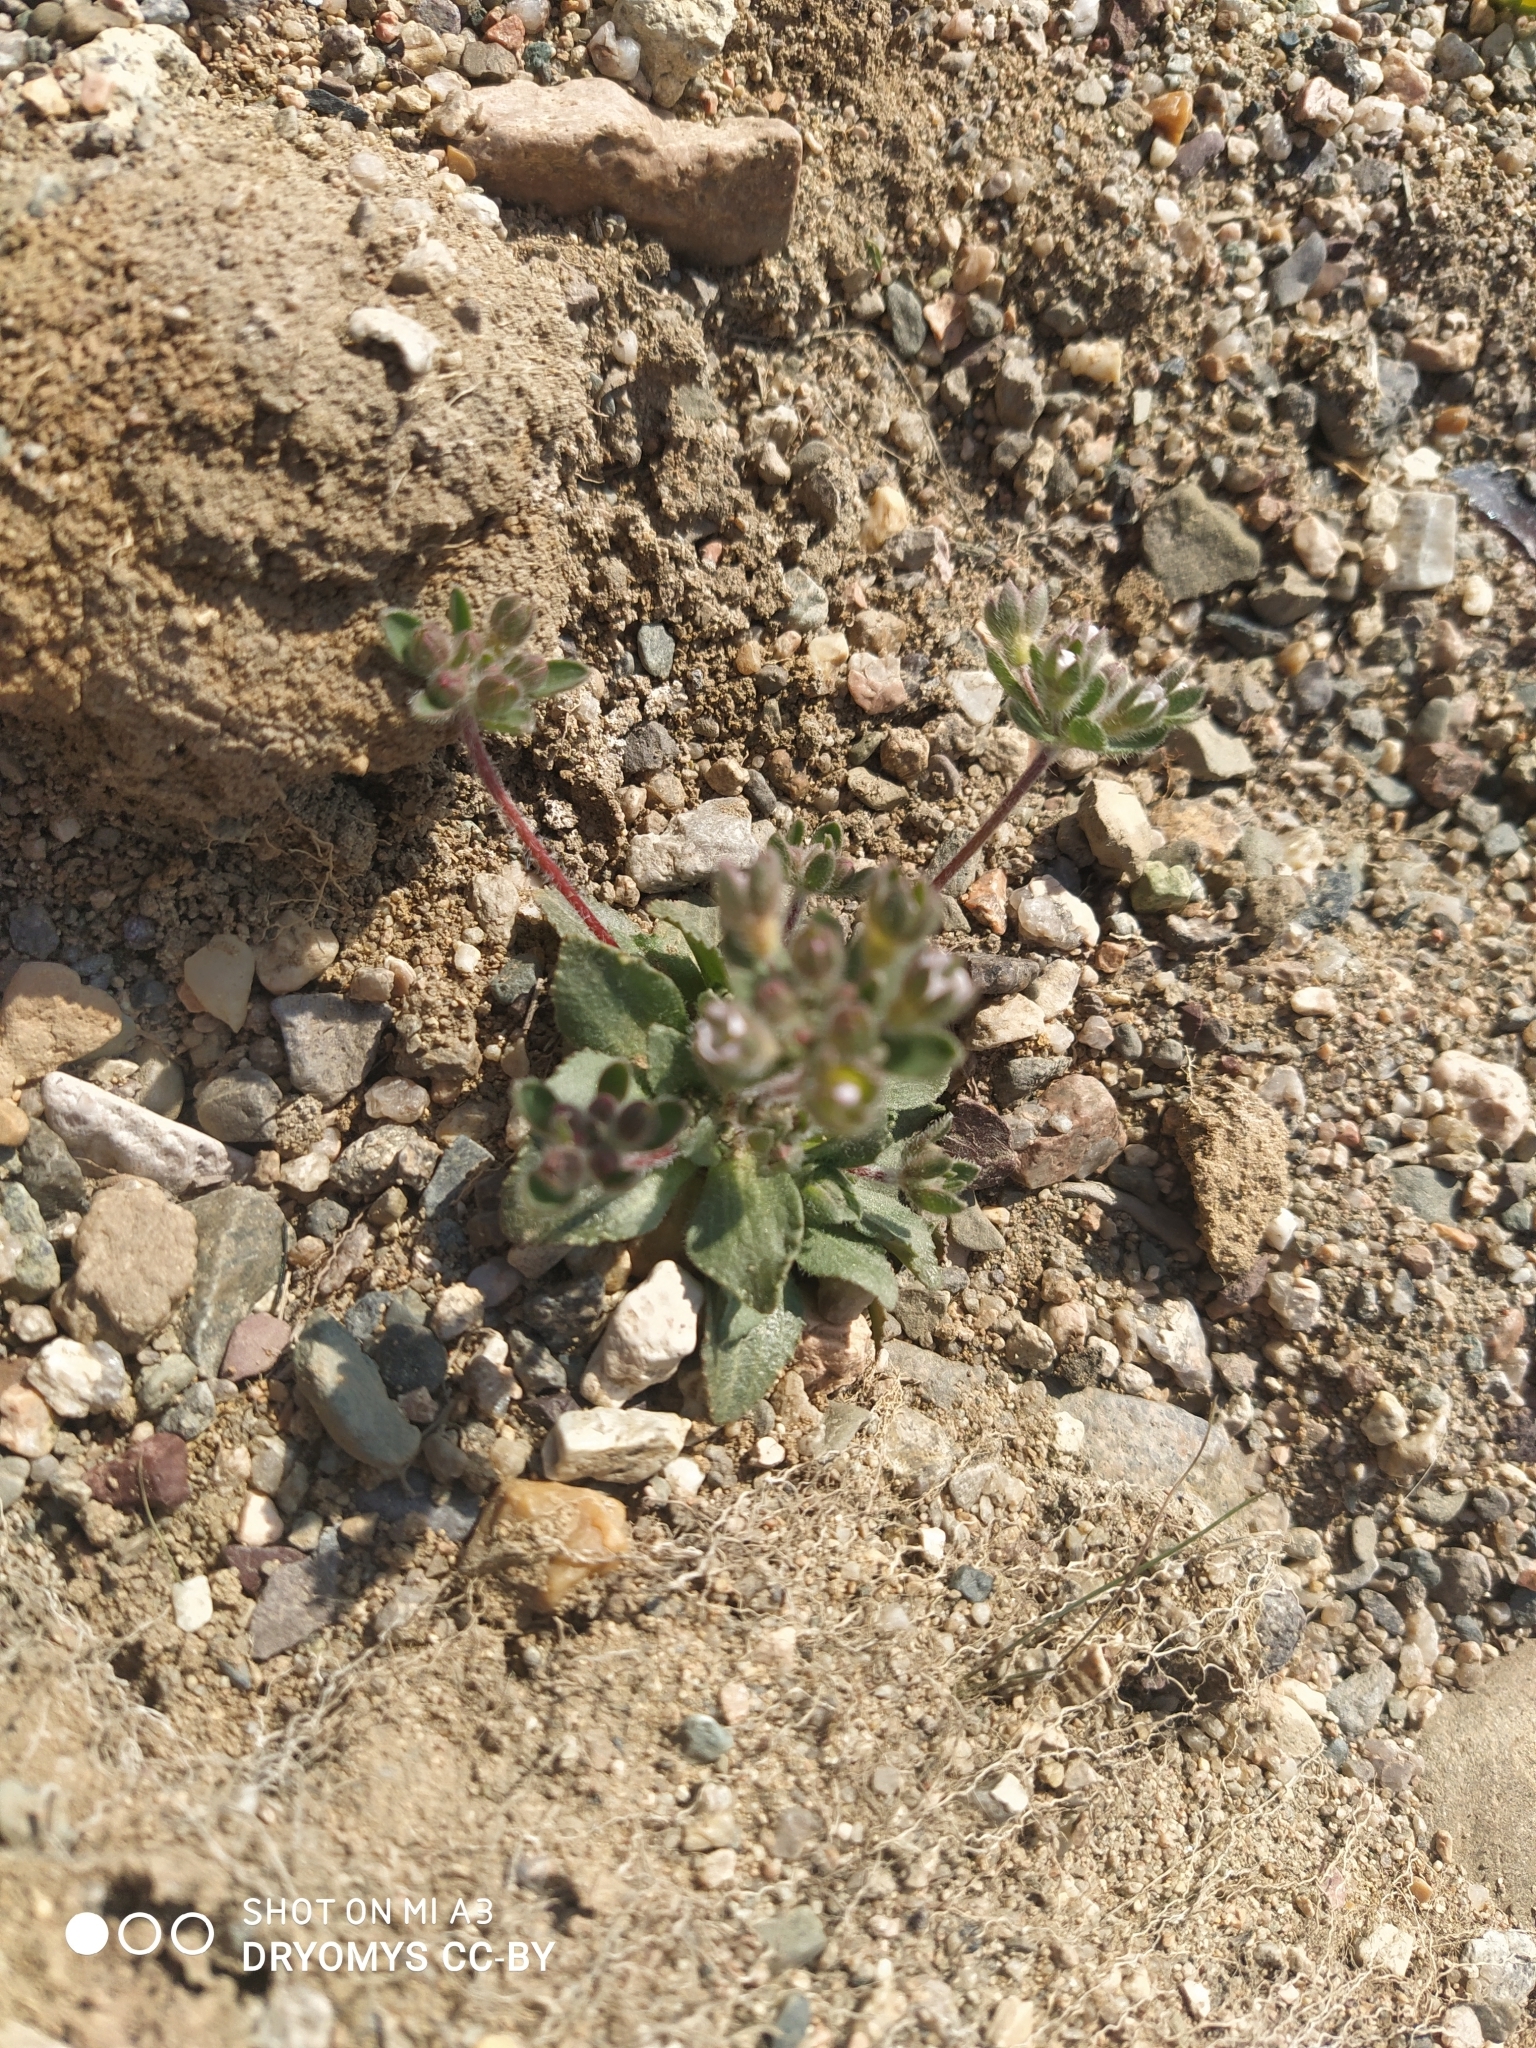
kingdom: Plantae
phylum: Tracheophyta
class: Magnoliopsida
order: Ericales
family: Primulaceae
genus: Androsace
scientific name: Androsace maxima
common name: Annual androsace
